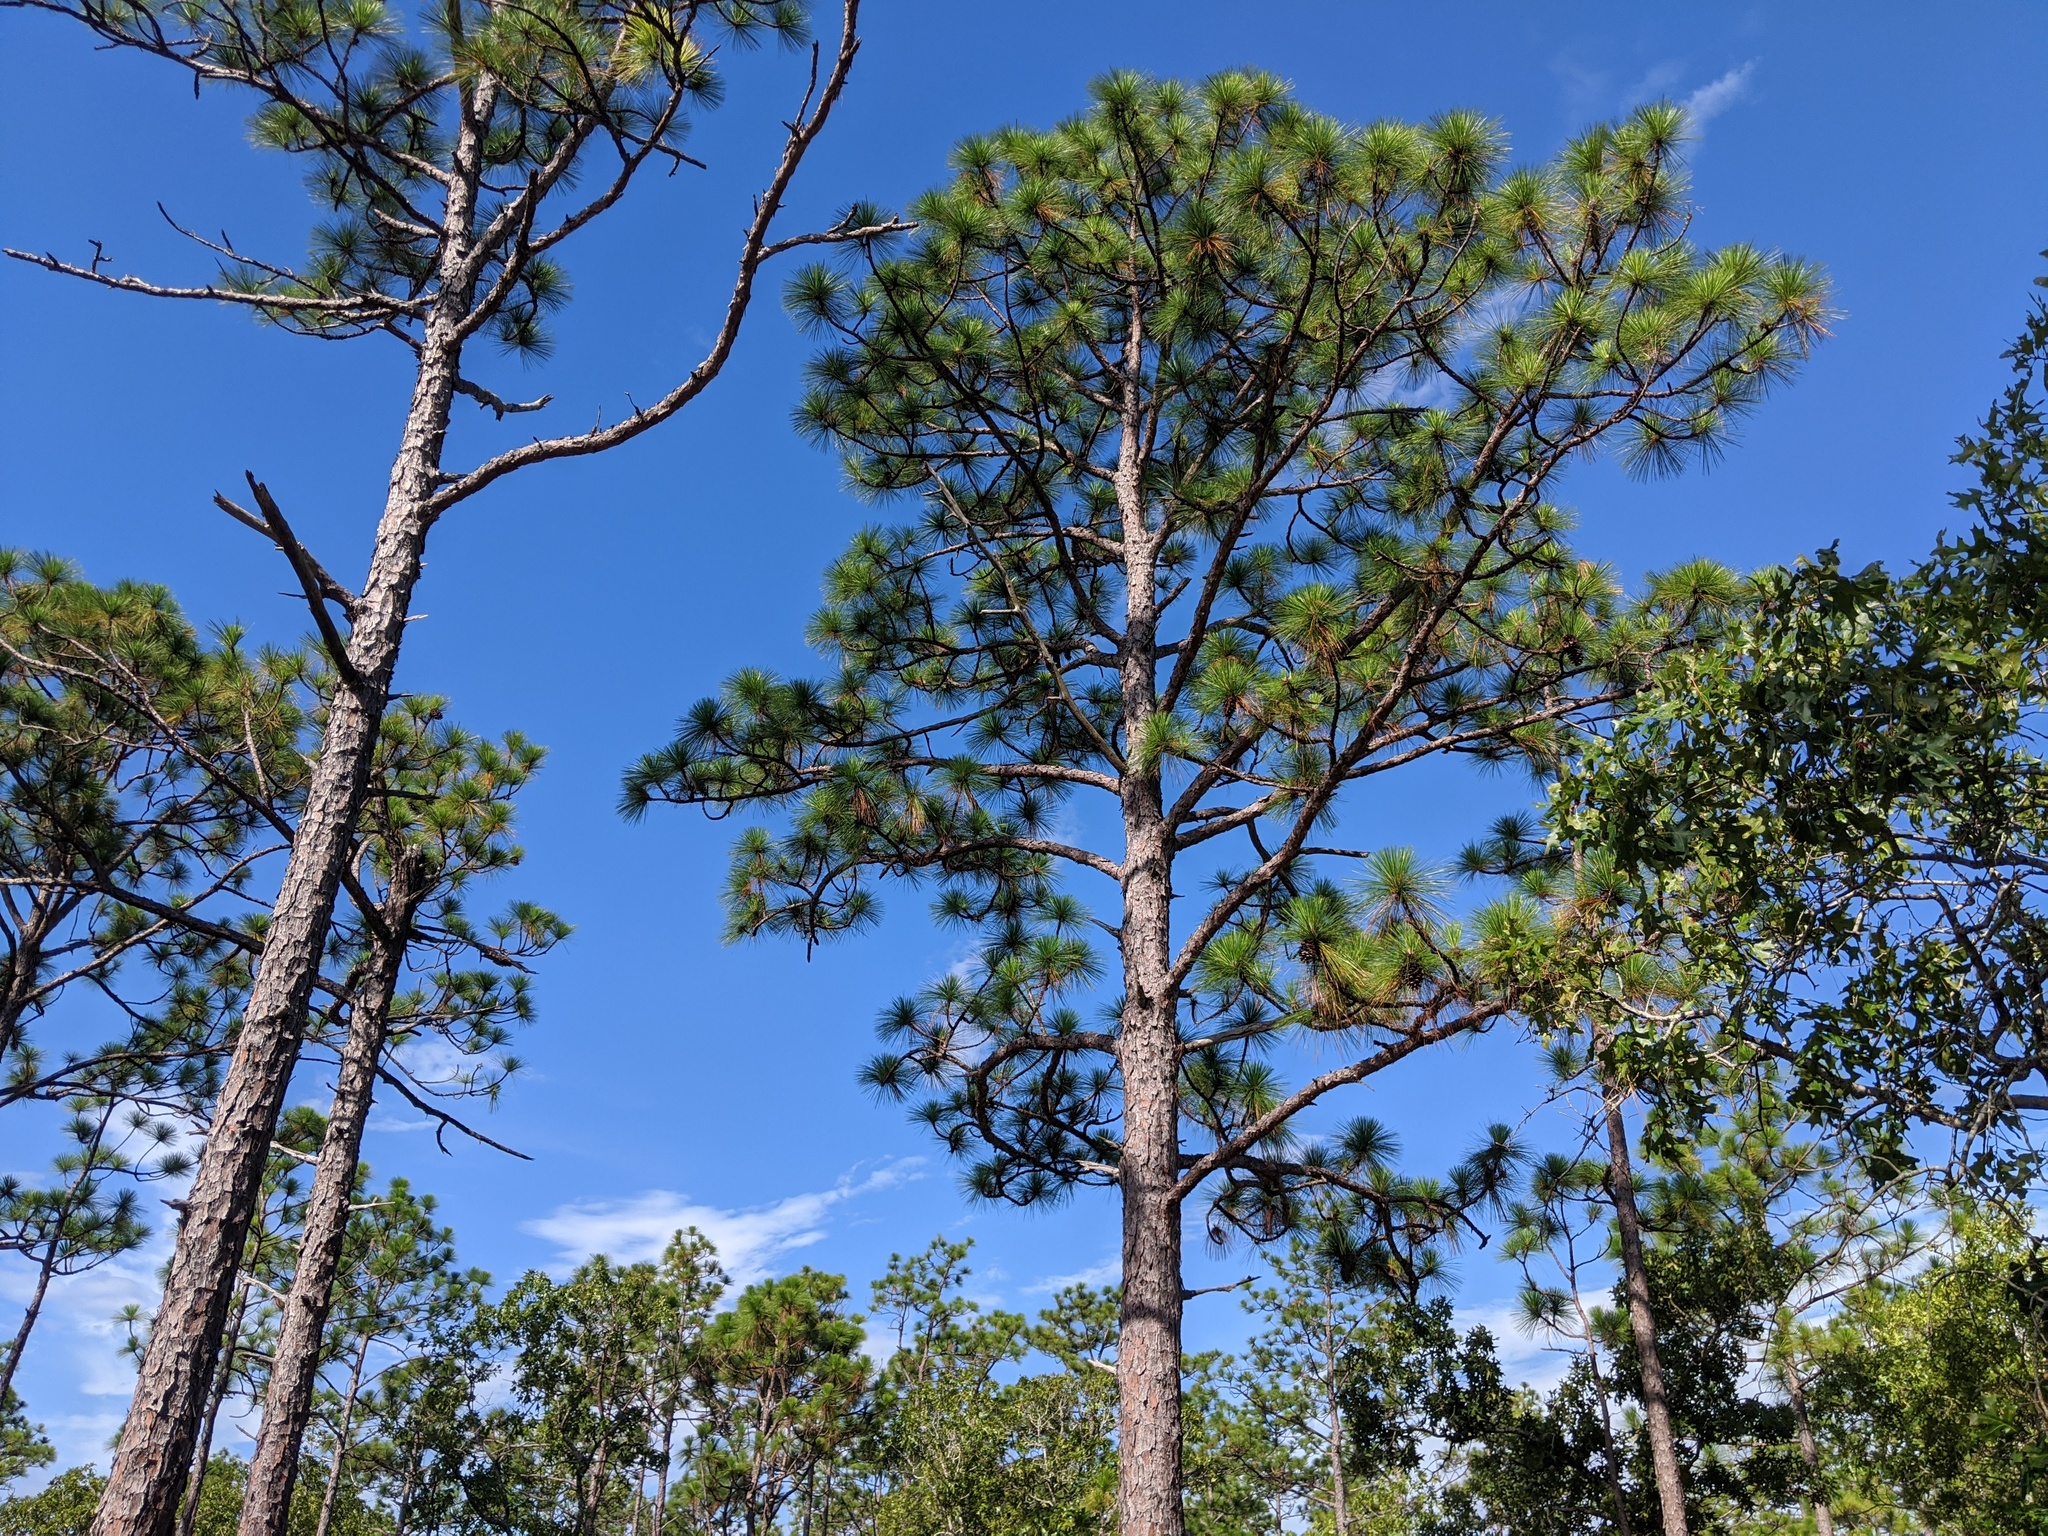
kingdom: Plantae
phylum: Tracheophyta
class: Pinopsida
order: Pinales
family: Pinaceae
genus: Pinus
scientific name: Pinus palustris
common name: Longleaf pine
